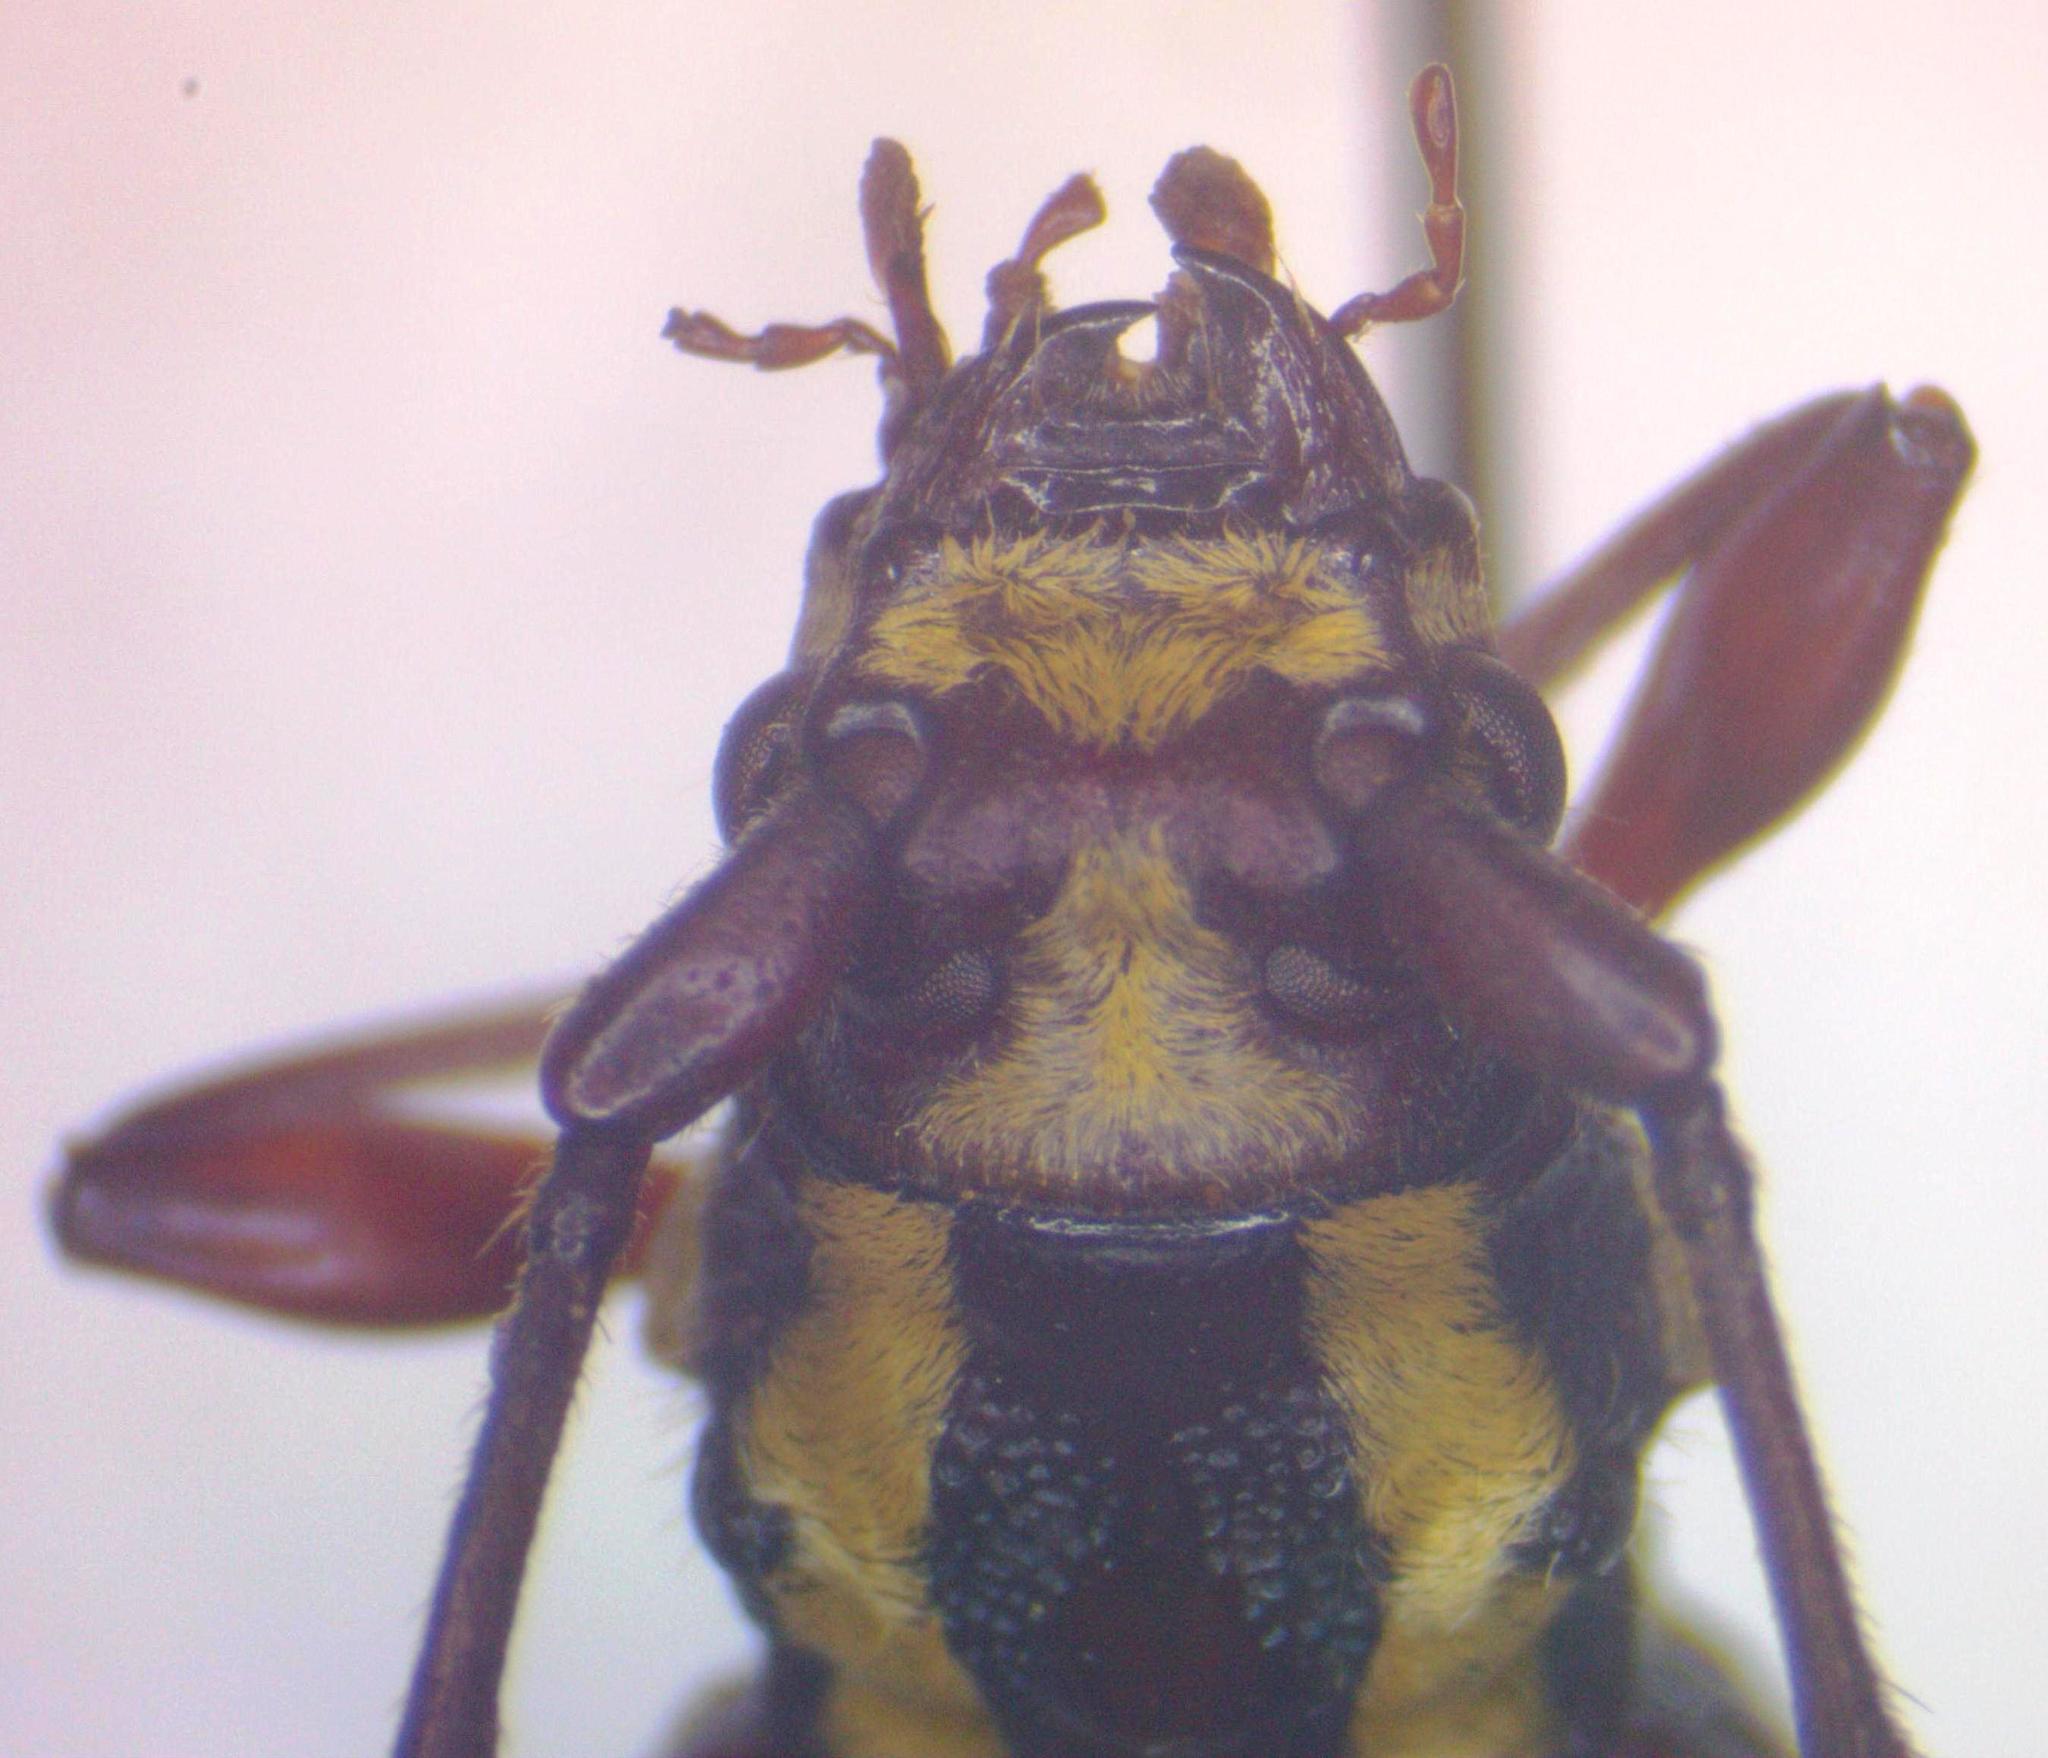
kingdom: Animalia
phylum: Arthropoda
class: Insecta
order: Coleoptera
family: Cerambycidae
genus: Ornithia
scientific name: Ornithia mexicana
